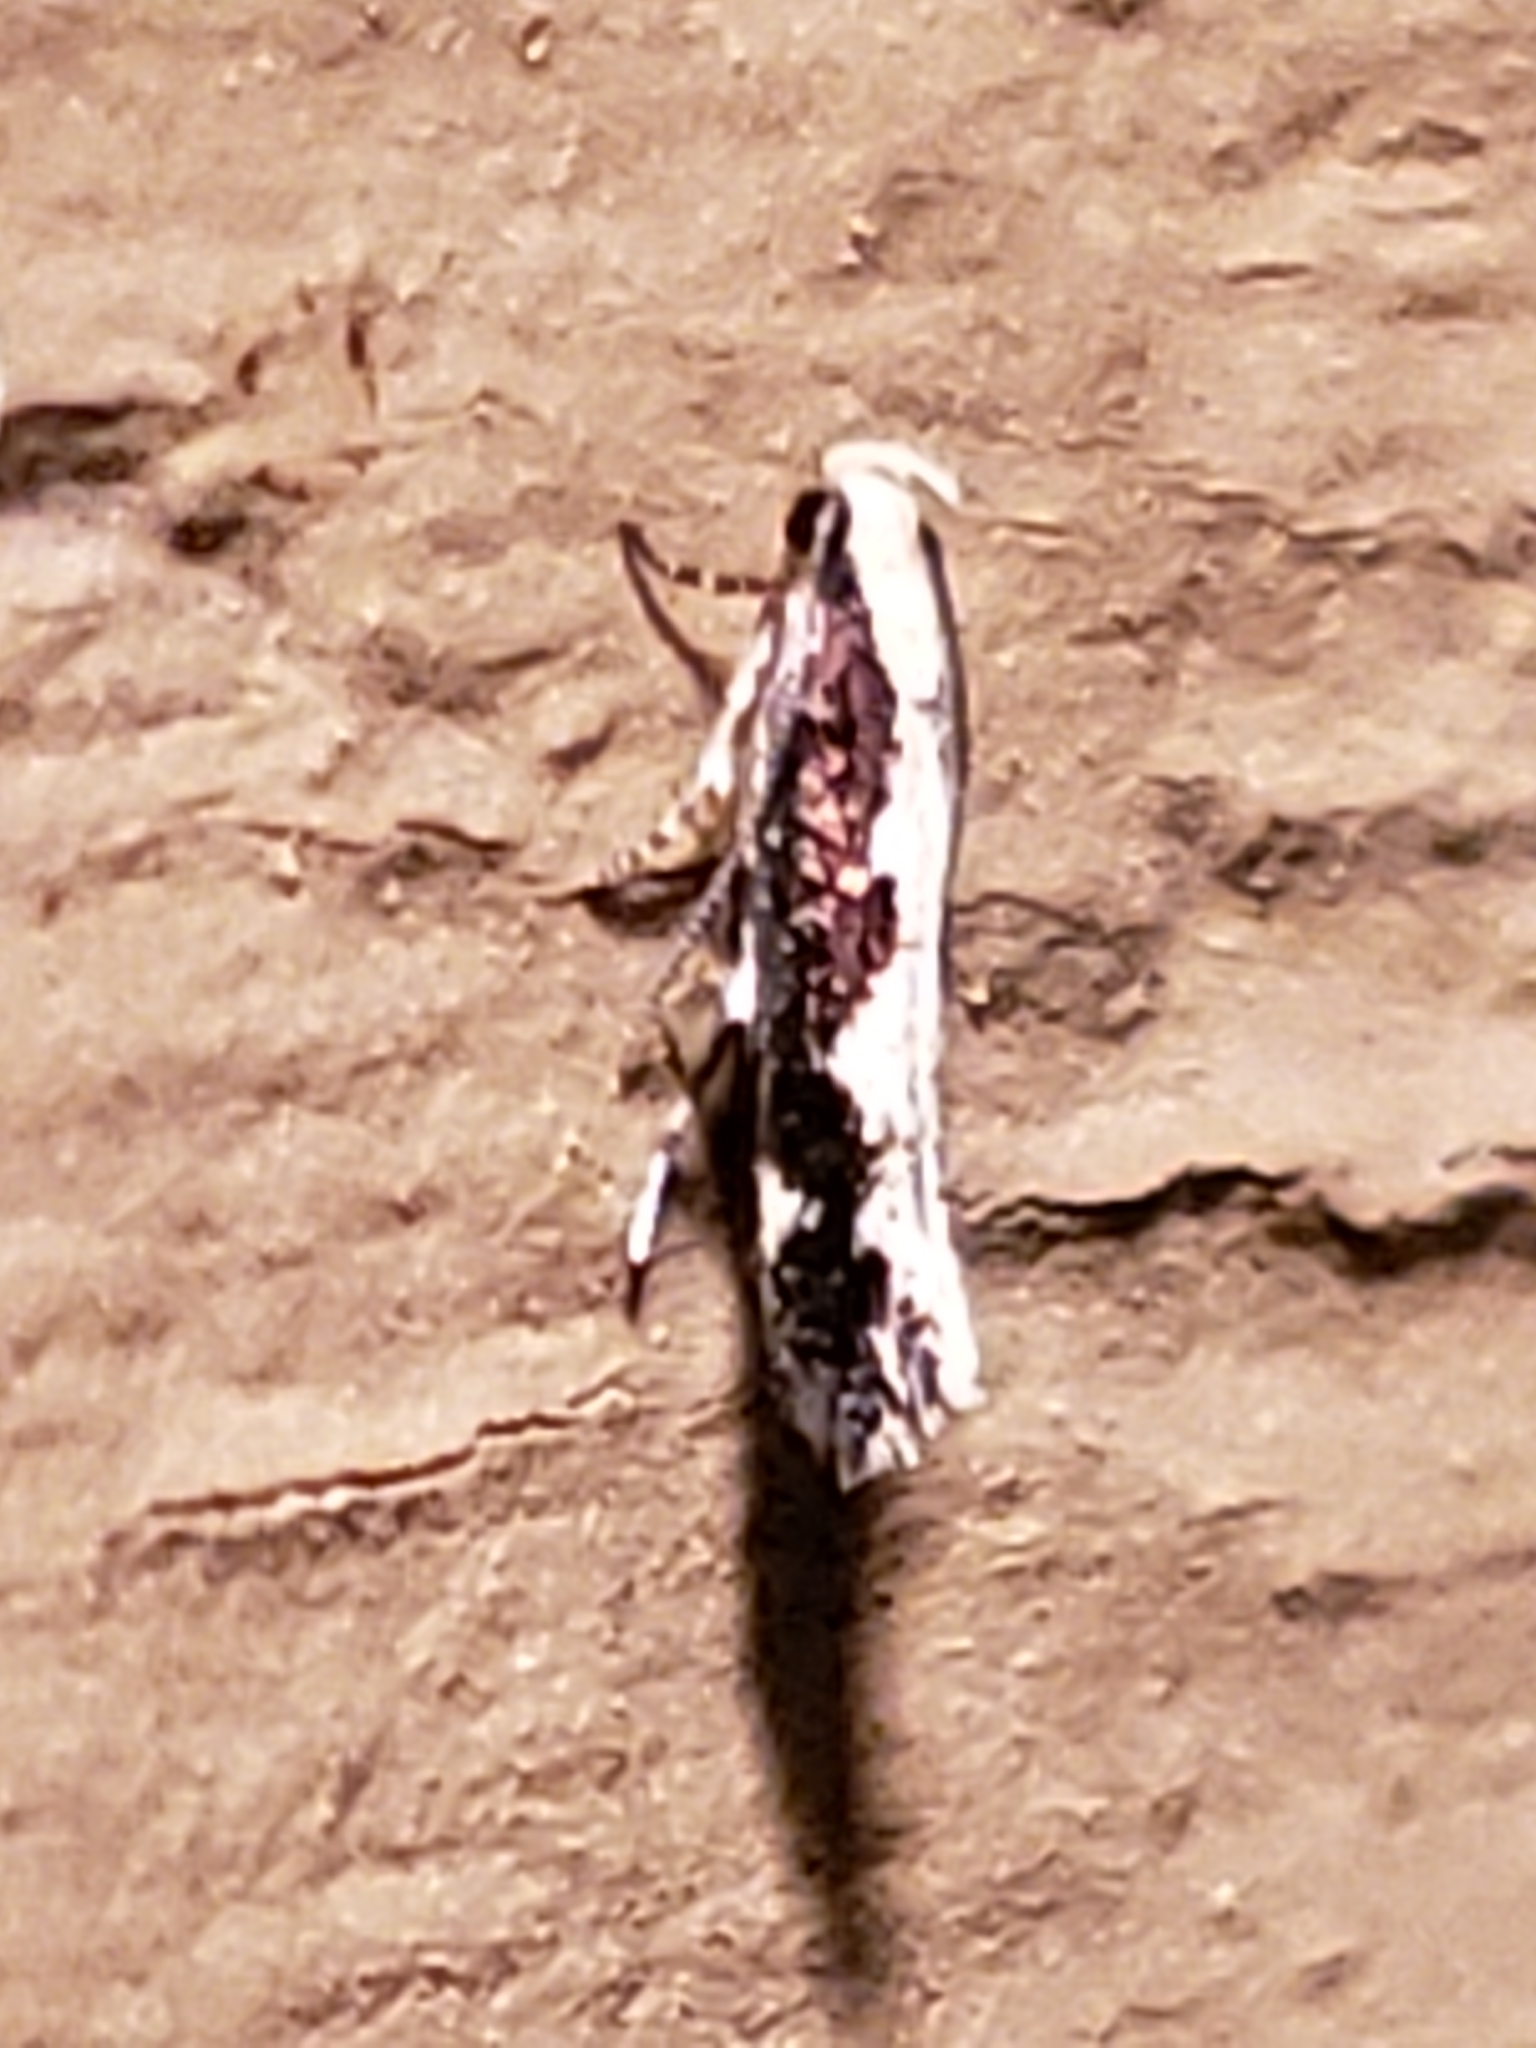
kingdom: Animalia
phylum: Arthropoda
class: Insecta
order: Lepidoptera
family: Gelechiidae
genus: Agnippe
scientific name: Agnippe prunifoliella
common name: Skunk twirler
